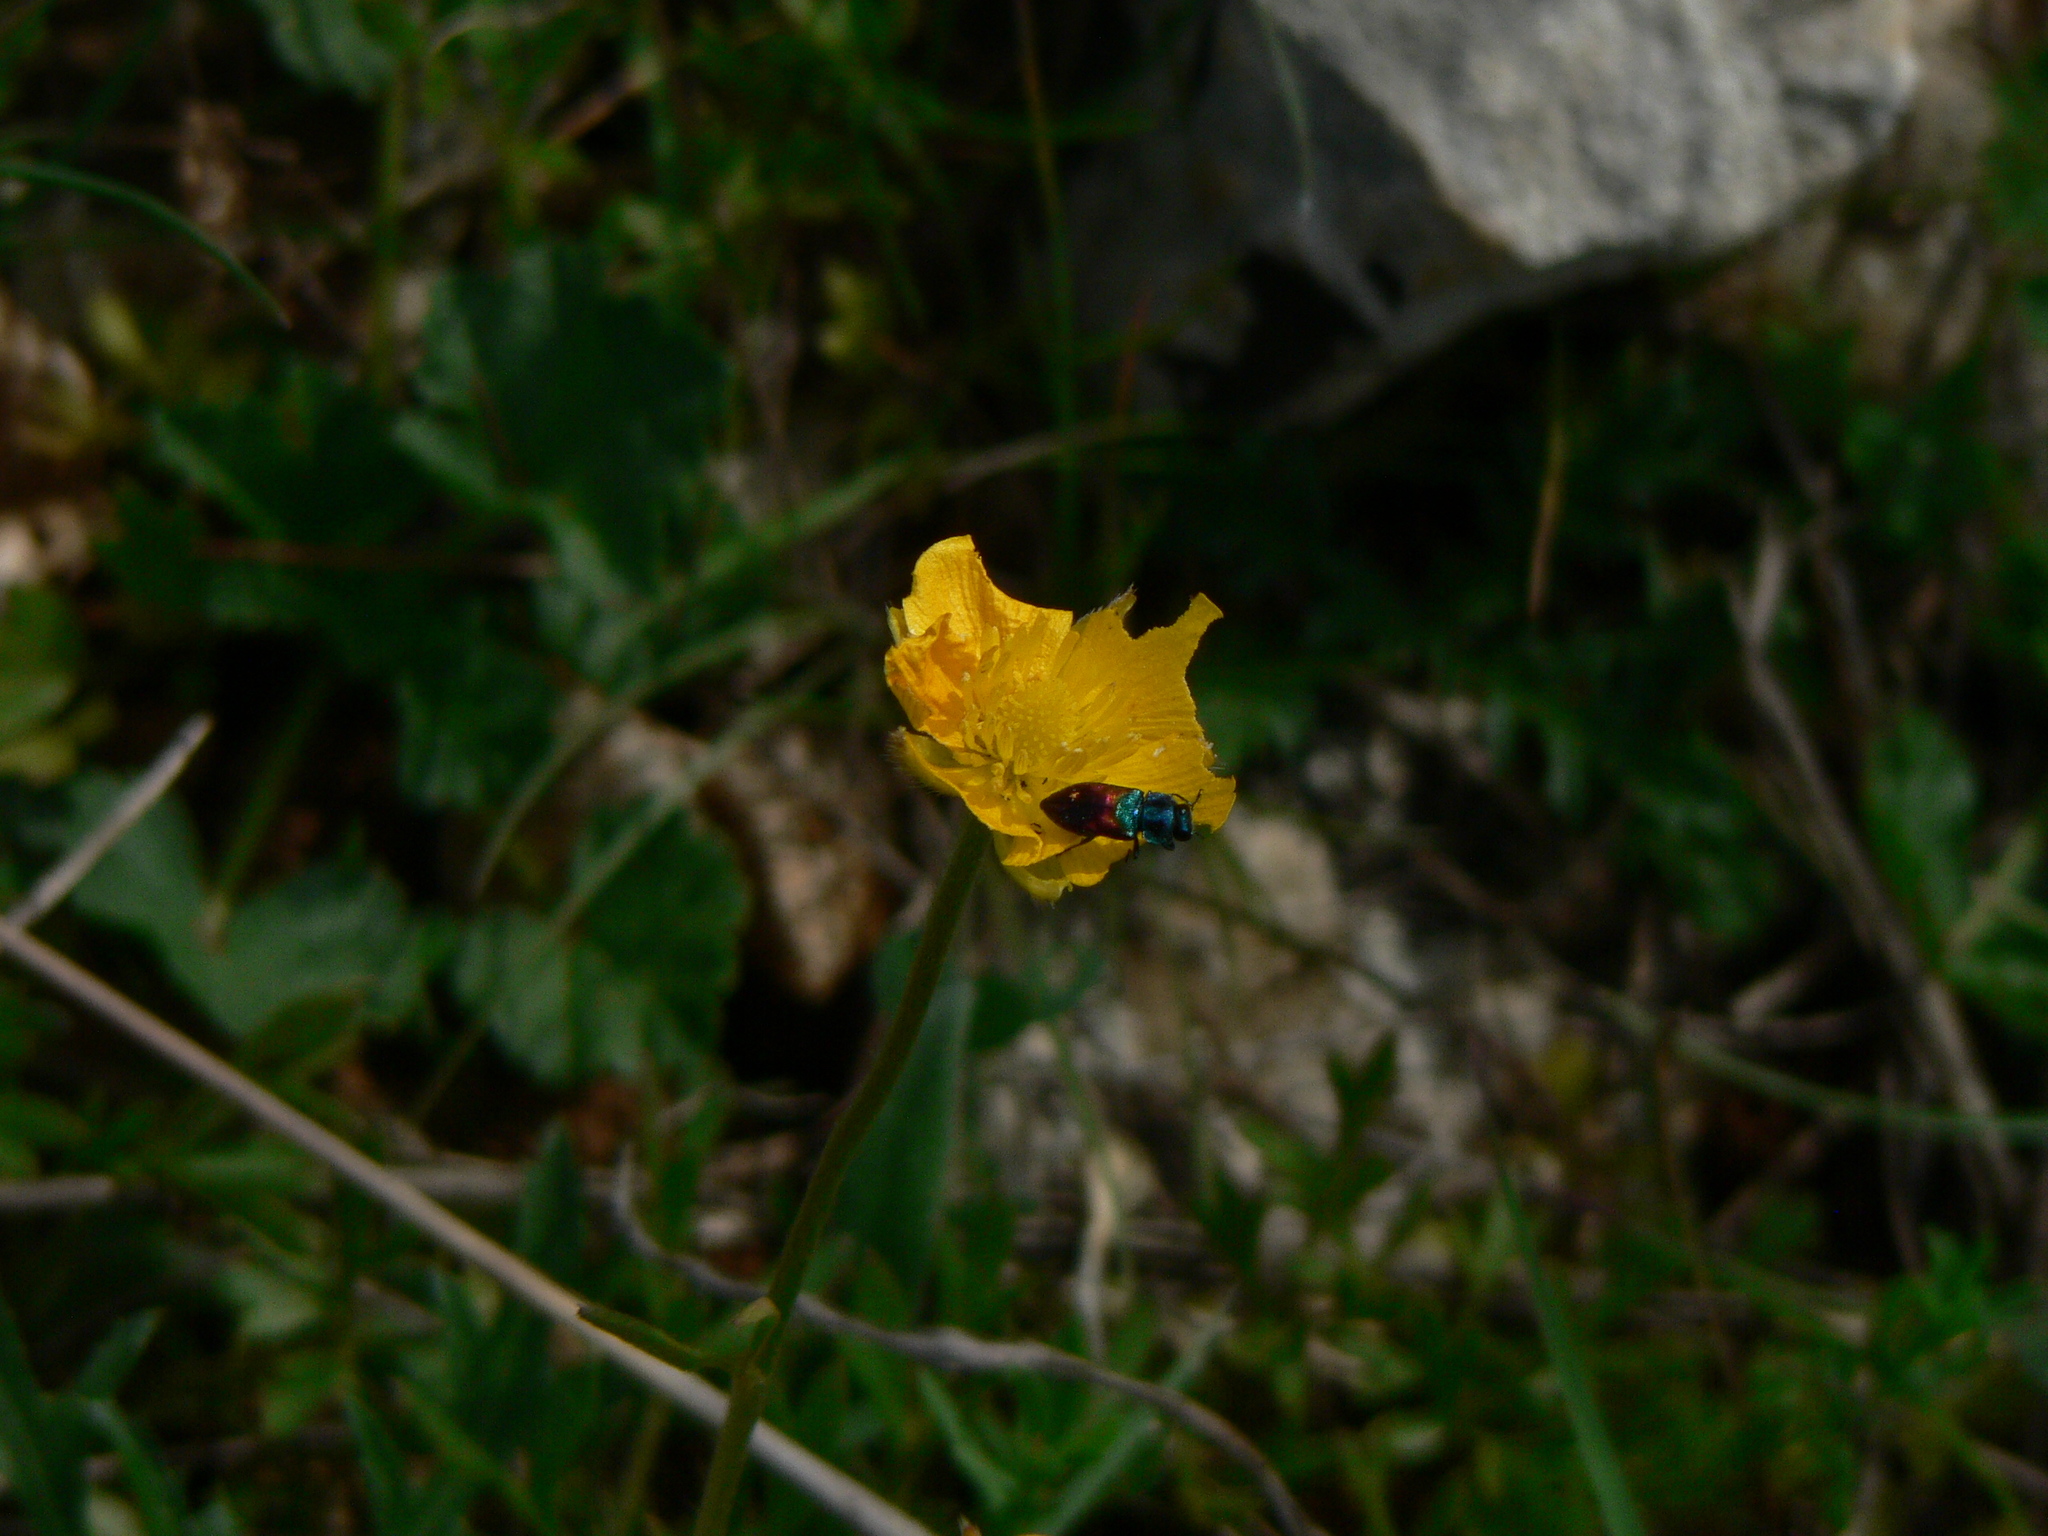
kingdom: Animalia
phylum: Arthropoda
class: Insecta
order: Coleoptera
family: Buprestidae
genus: Anthaxia
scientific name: Anthaxia salicis
